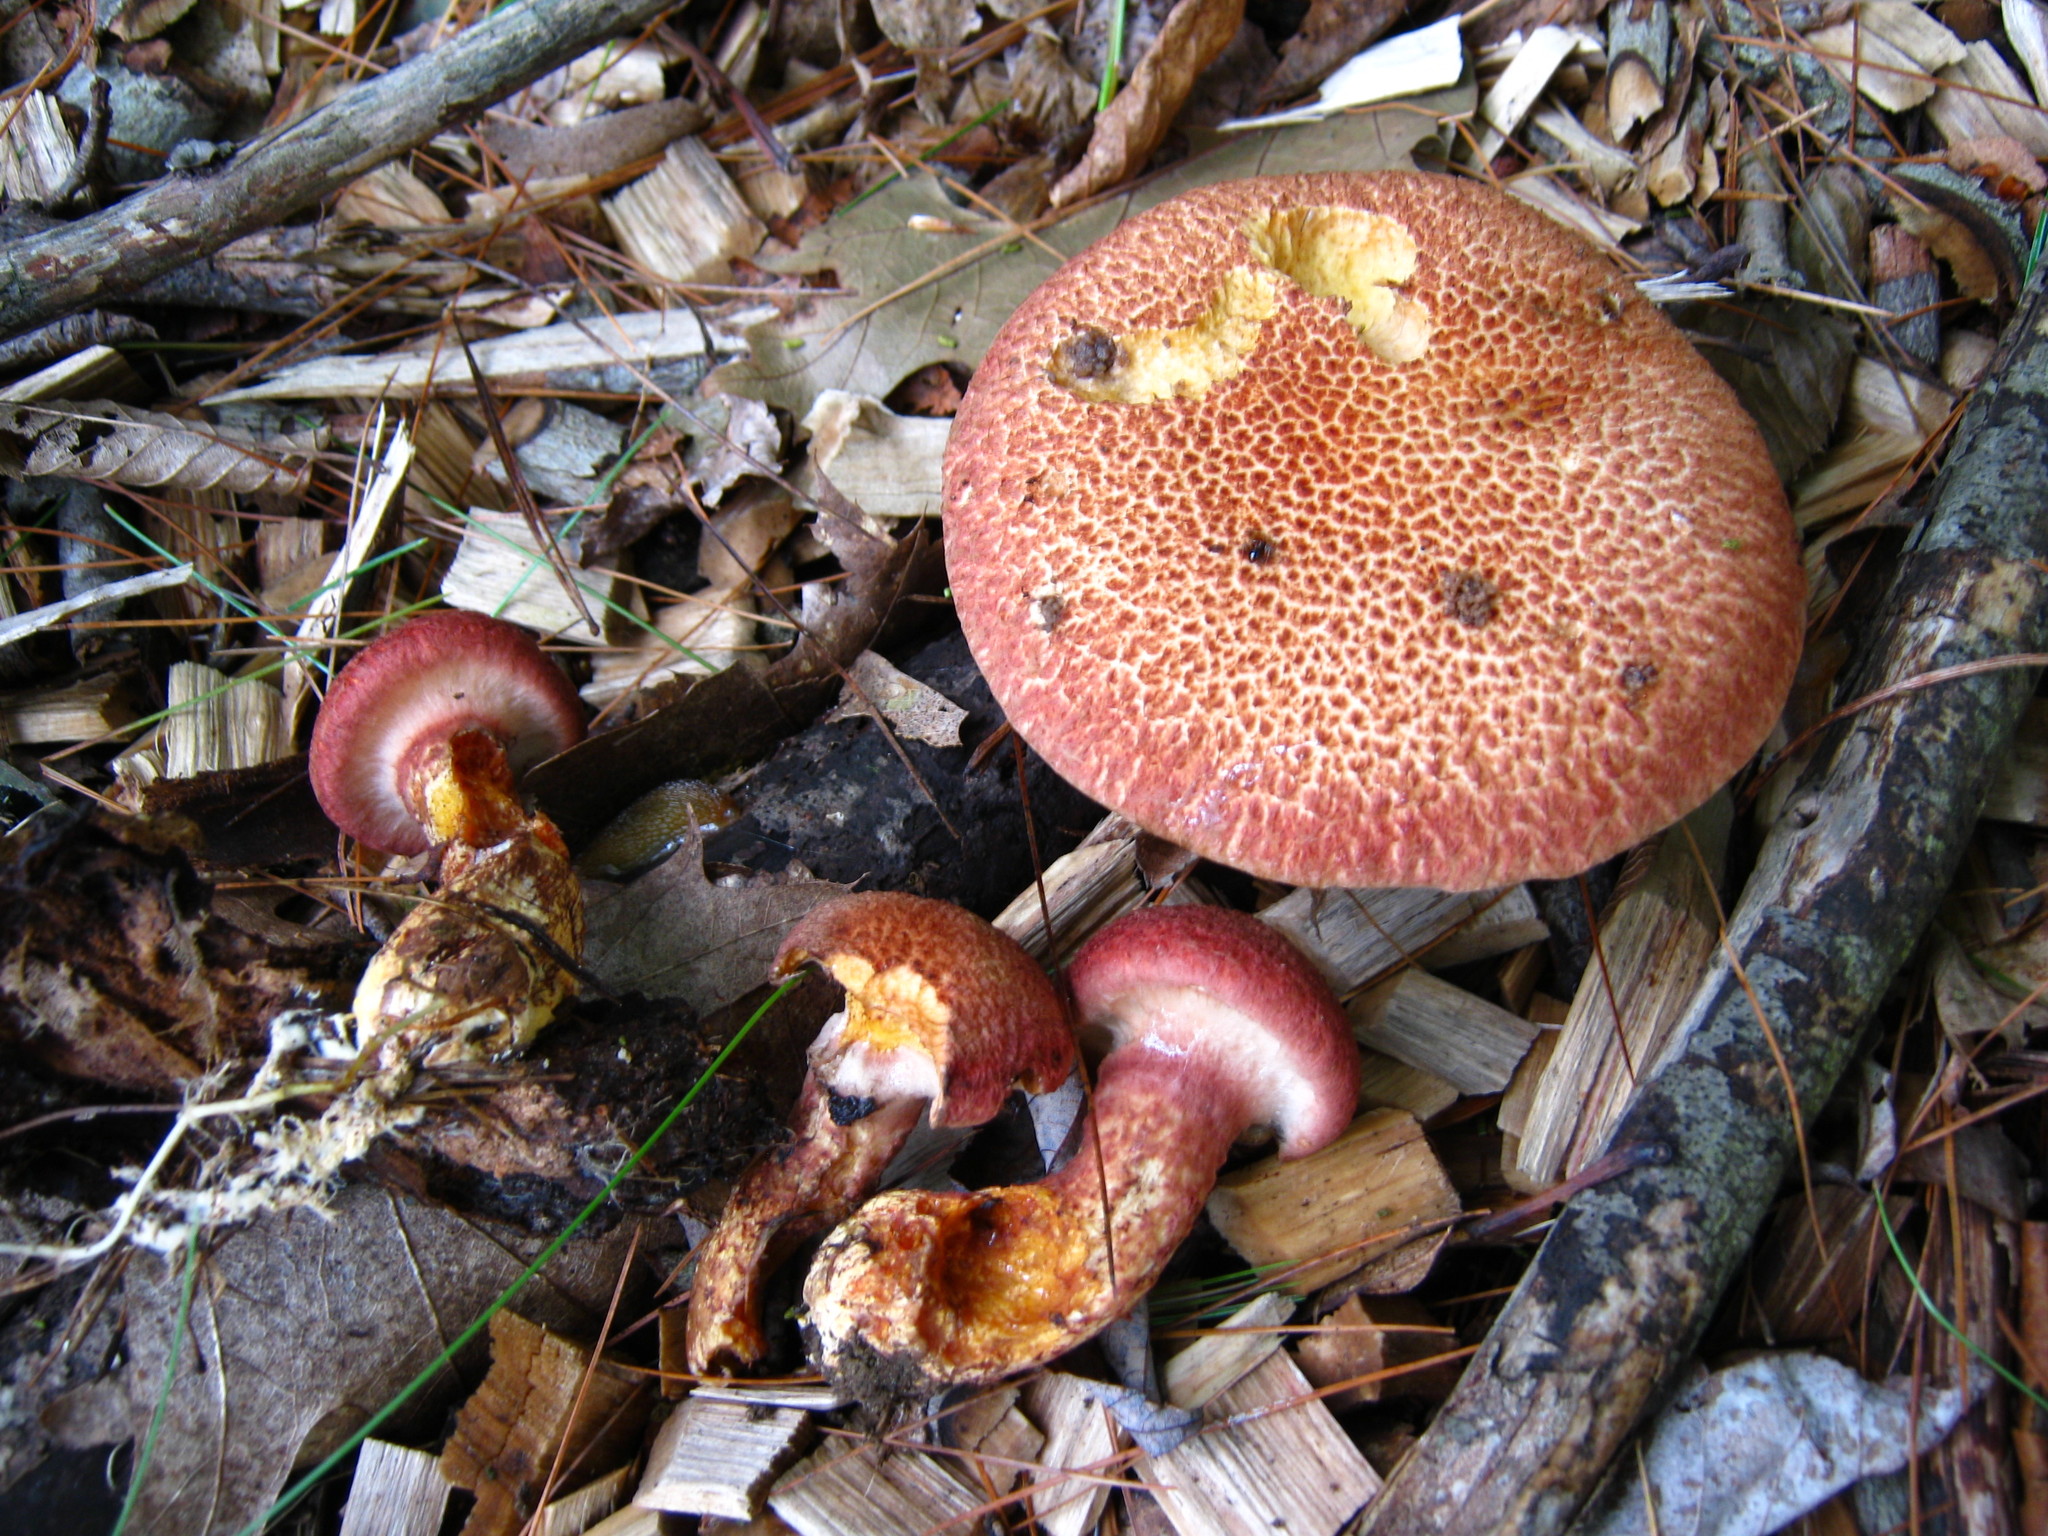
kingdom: Fungi
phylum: Basidiomycota
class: Agaricomycetes
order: Boletales
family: Suillaceae
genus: Suillus
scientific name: Suillus spraguei
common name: Painted suillus
